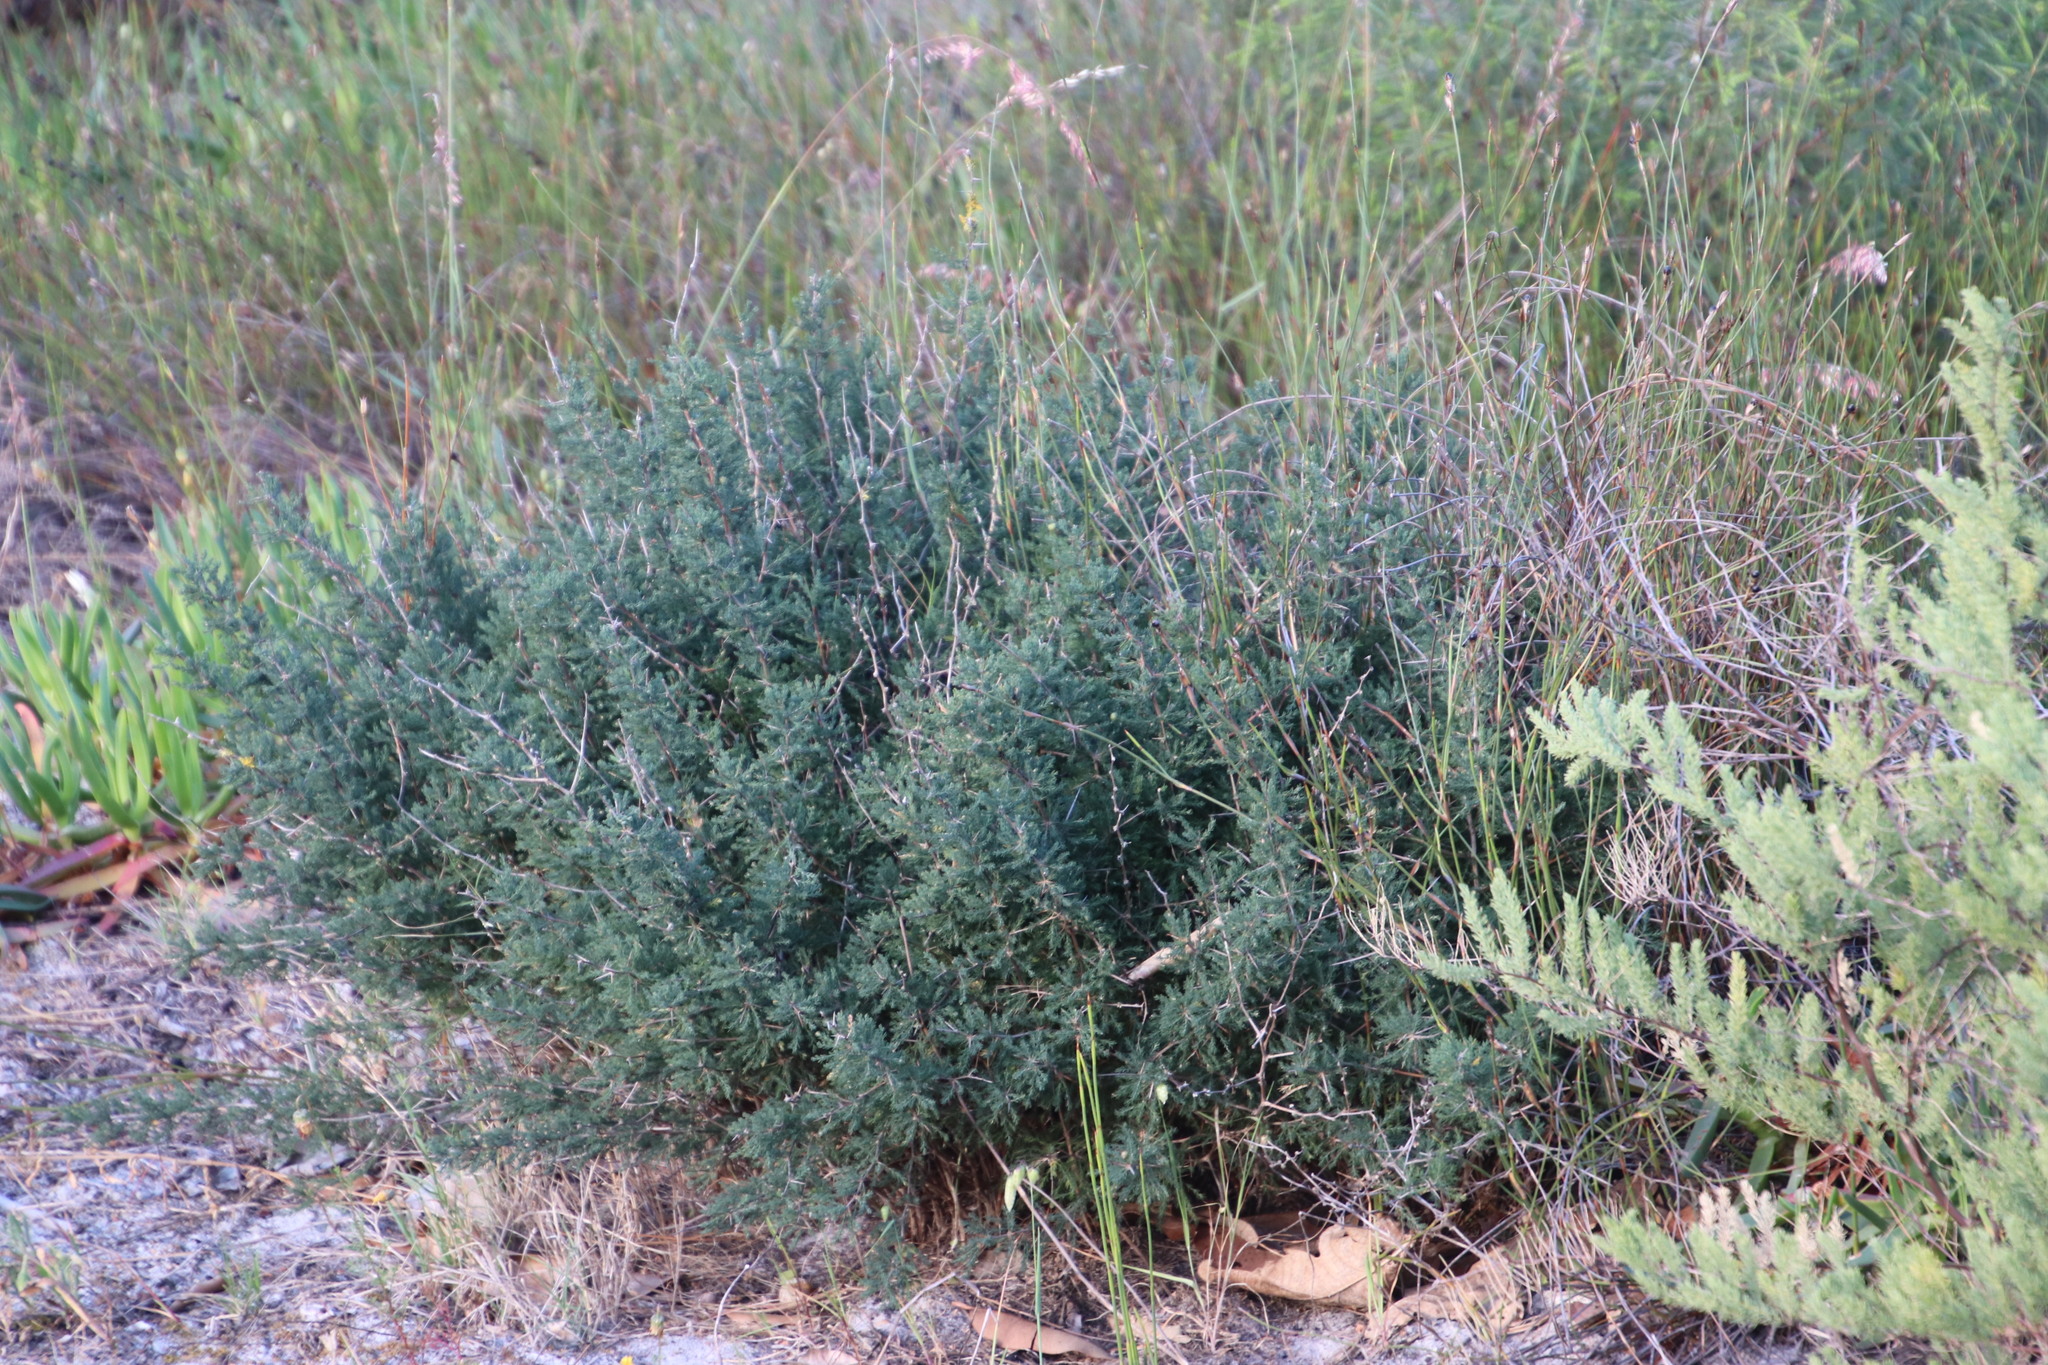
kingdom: Plantae
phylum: Tracheophyta
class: Liliopsida
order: Asparagales
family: Asparagaceae
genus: Asparagus
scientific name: Asparagus capensis
